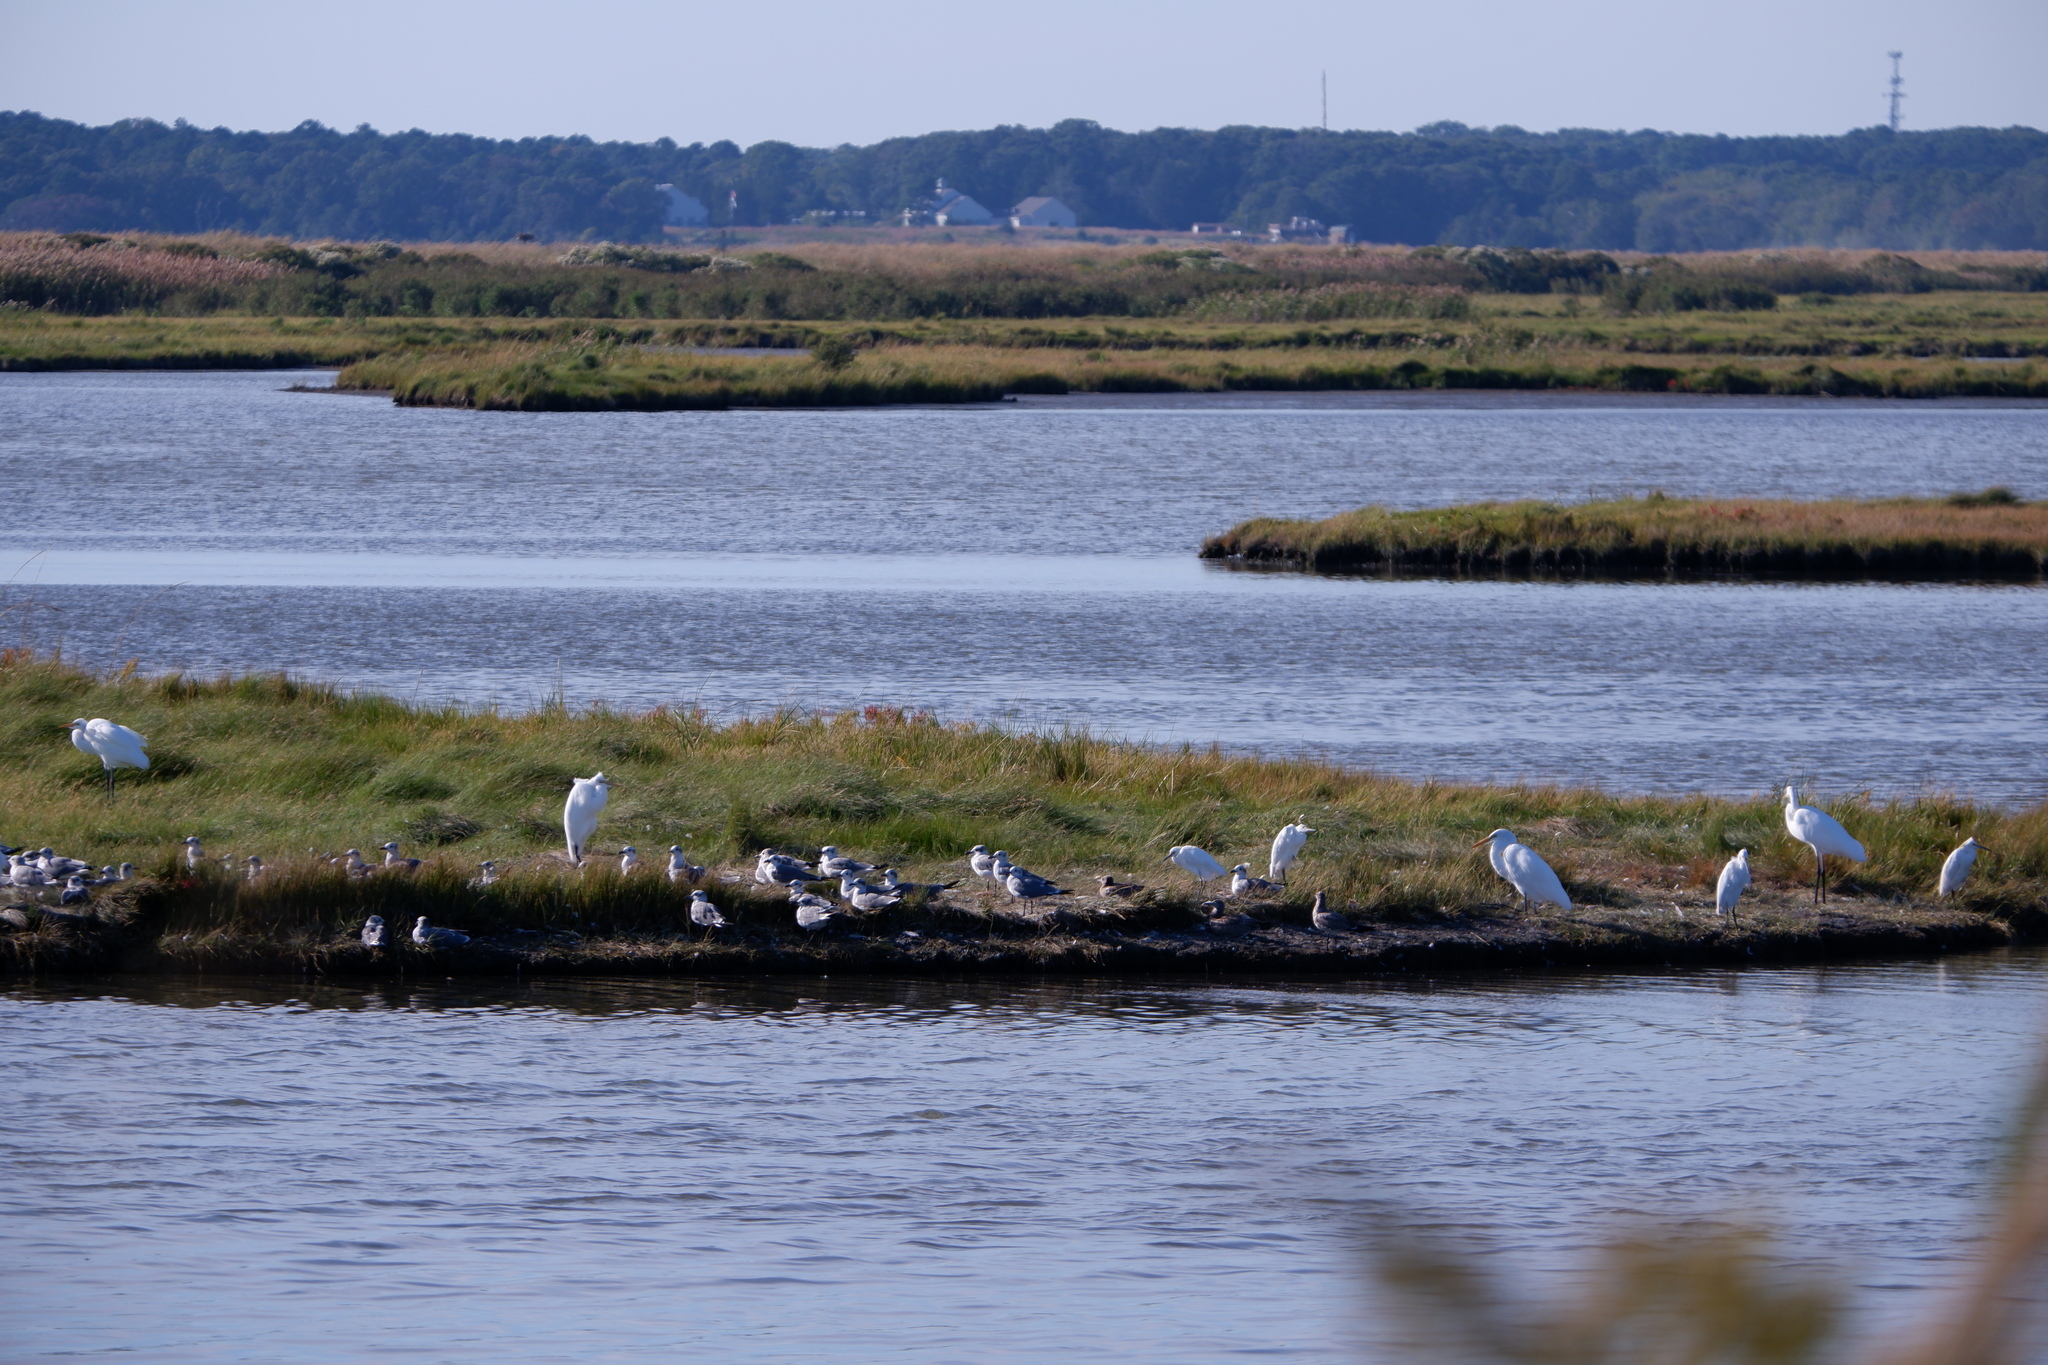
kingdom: Animalia
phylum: Chordata
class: Aves
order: Pelecaniformes
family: Ardeidae
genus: Egretta
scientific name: Egretta thula
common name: Snowy egret
